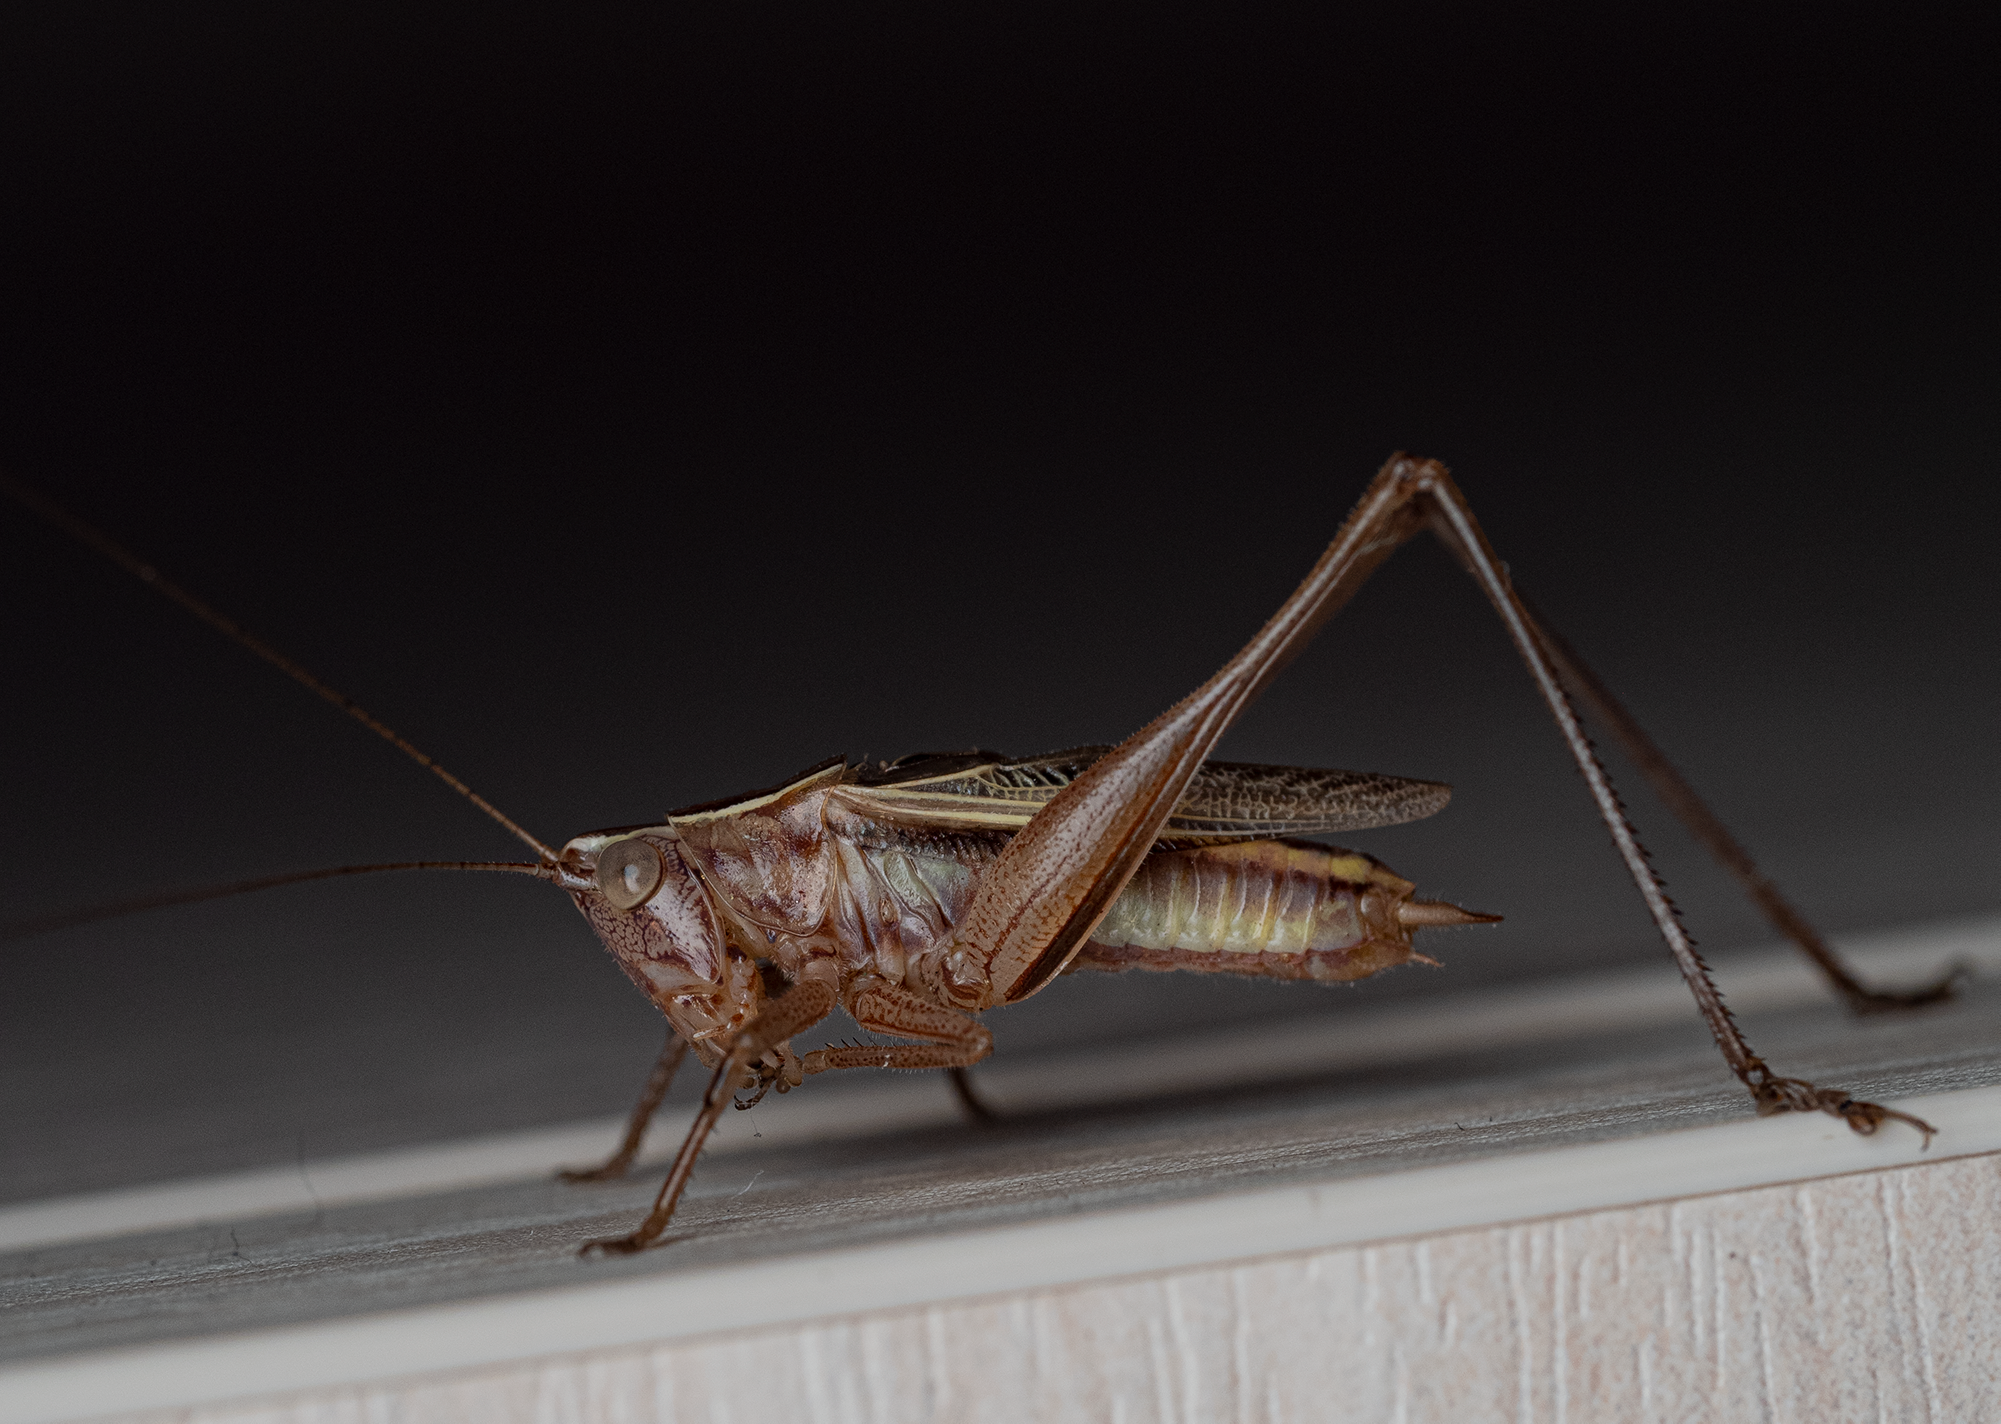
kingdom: Animalia
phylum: Arthropoda
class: Insecta
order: Orthoptera
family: Tettigoniidae
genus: Conocephalus
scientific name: Conocephalus albescens
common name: Whitish meadow katydid
